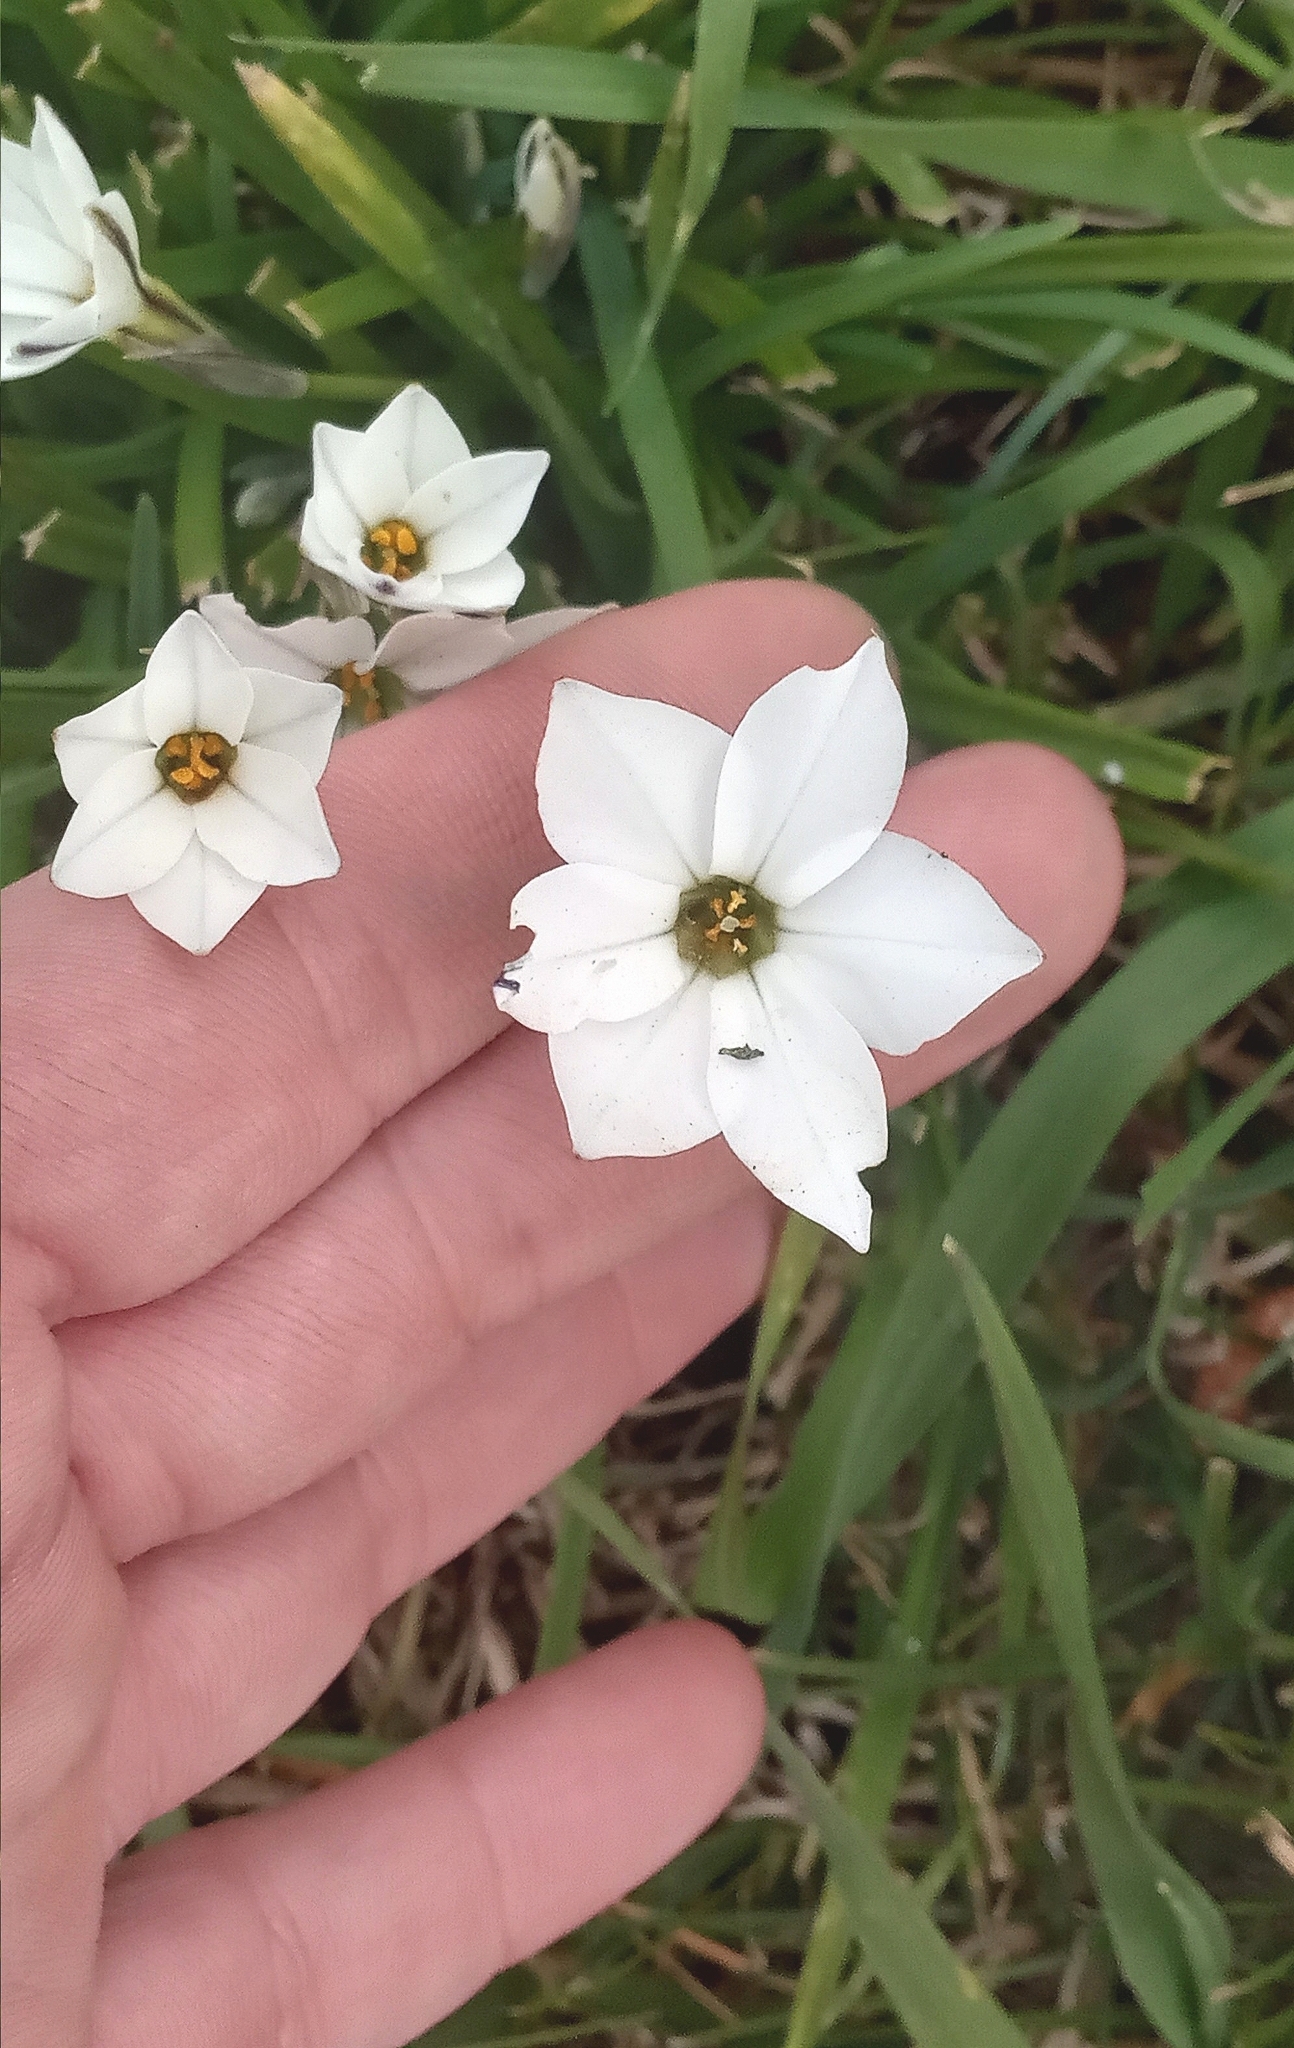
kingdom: Plantae
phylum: Tracheophyta
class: Liliopsida
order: Asparagales
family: Amaryllidaceae
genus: Ipheion
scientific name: Ipheion uniflorum
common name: Spring starflower
